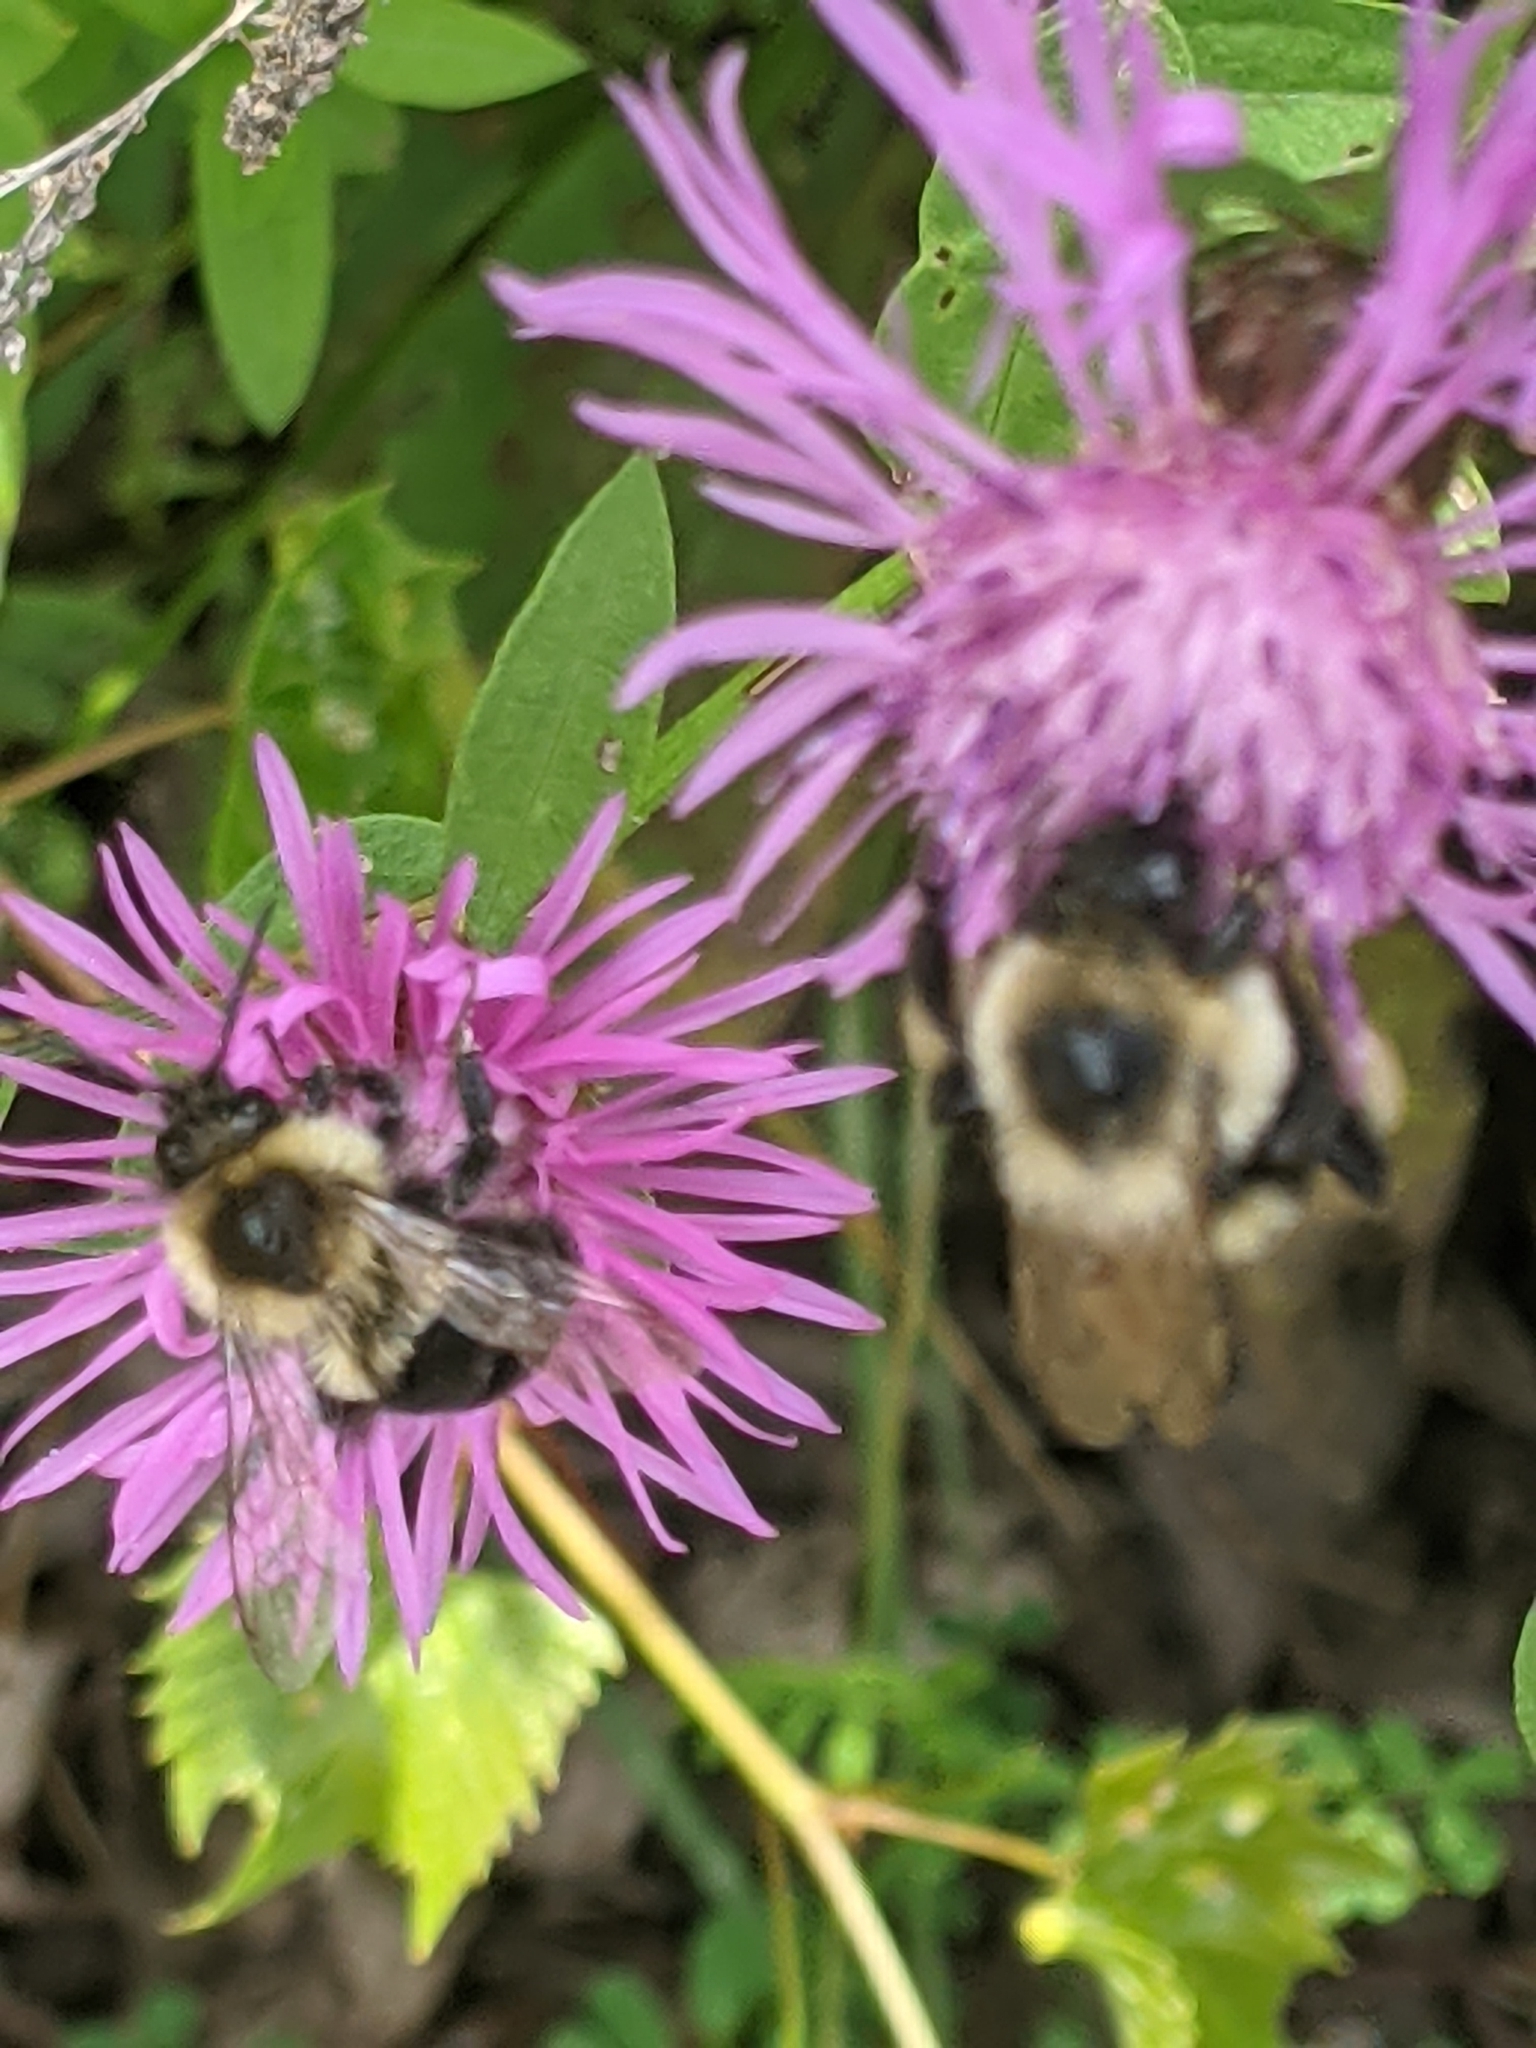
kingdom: Animalia
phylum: Arthropoda
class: Insecta
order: Hymenoptera
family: Apidae
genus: Bombus
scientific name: Bombus impatiens
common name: Common eastern bumble bee
